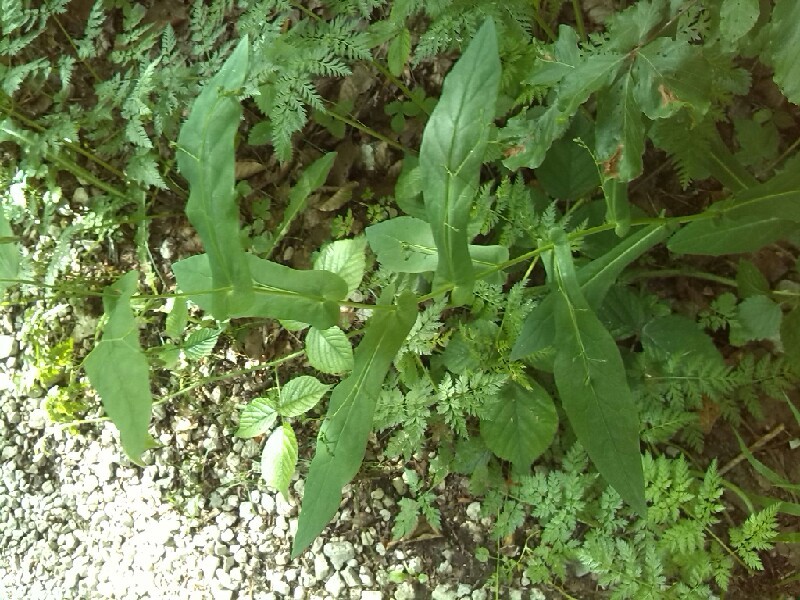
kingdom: Plantae
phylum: Tracheophyta
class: Magnoliopsida
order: Asterales
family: Asteraceae
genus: Prenanthes
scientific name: Prenanthes purpurea
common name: Purple lettuce
